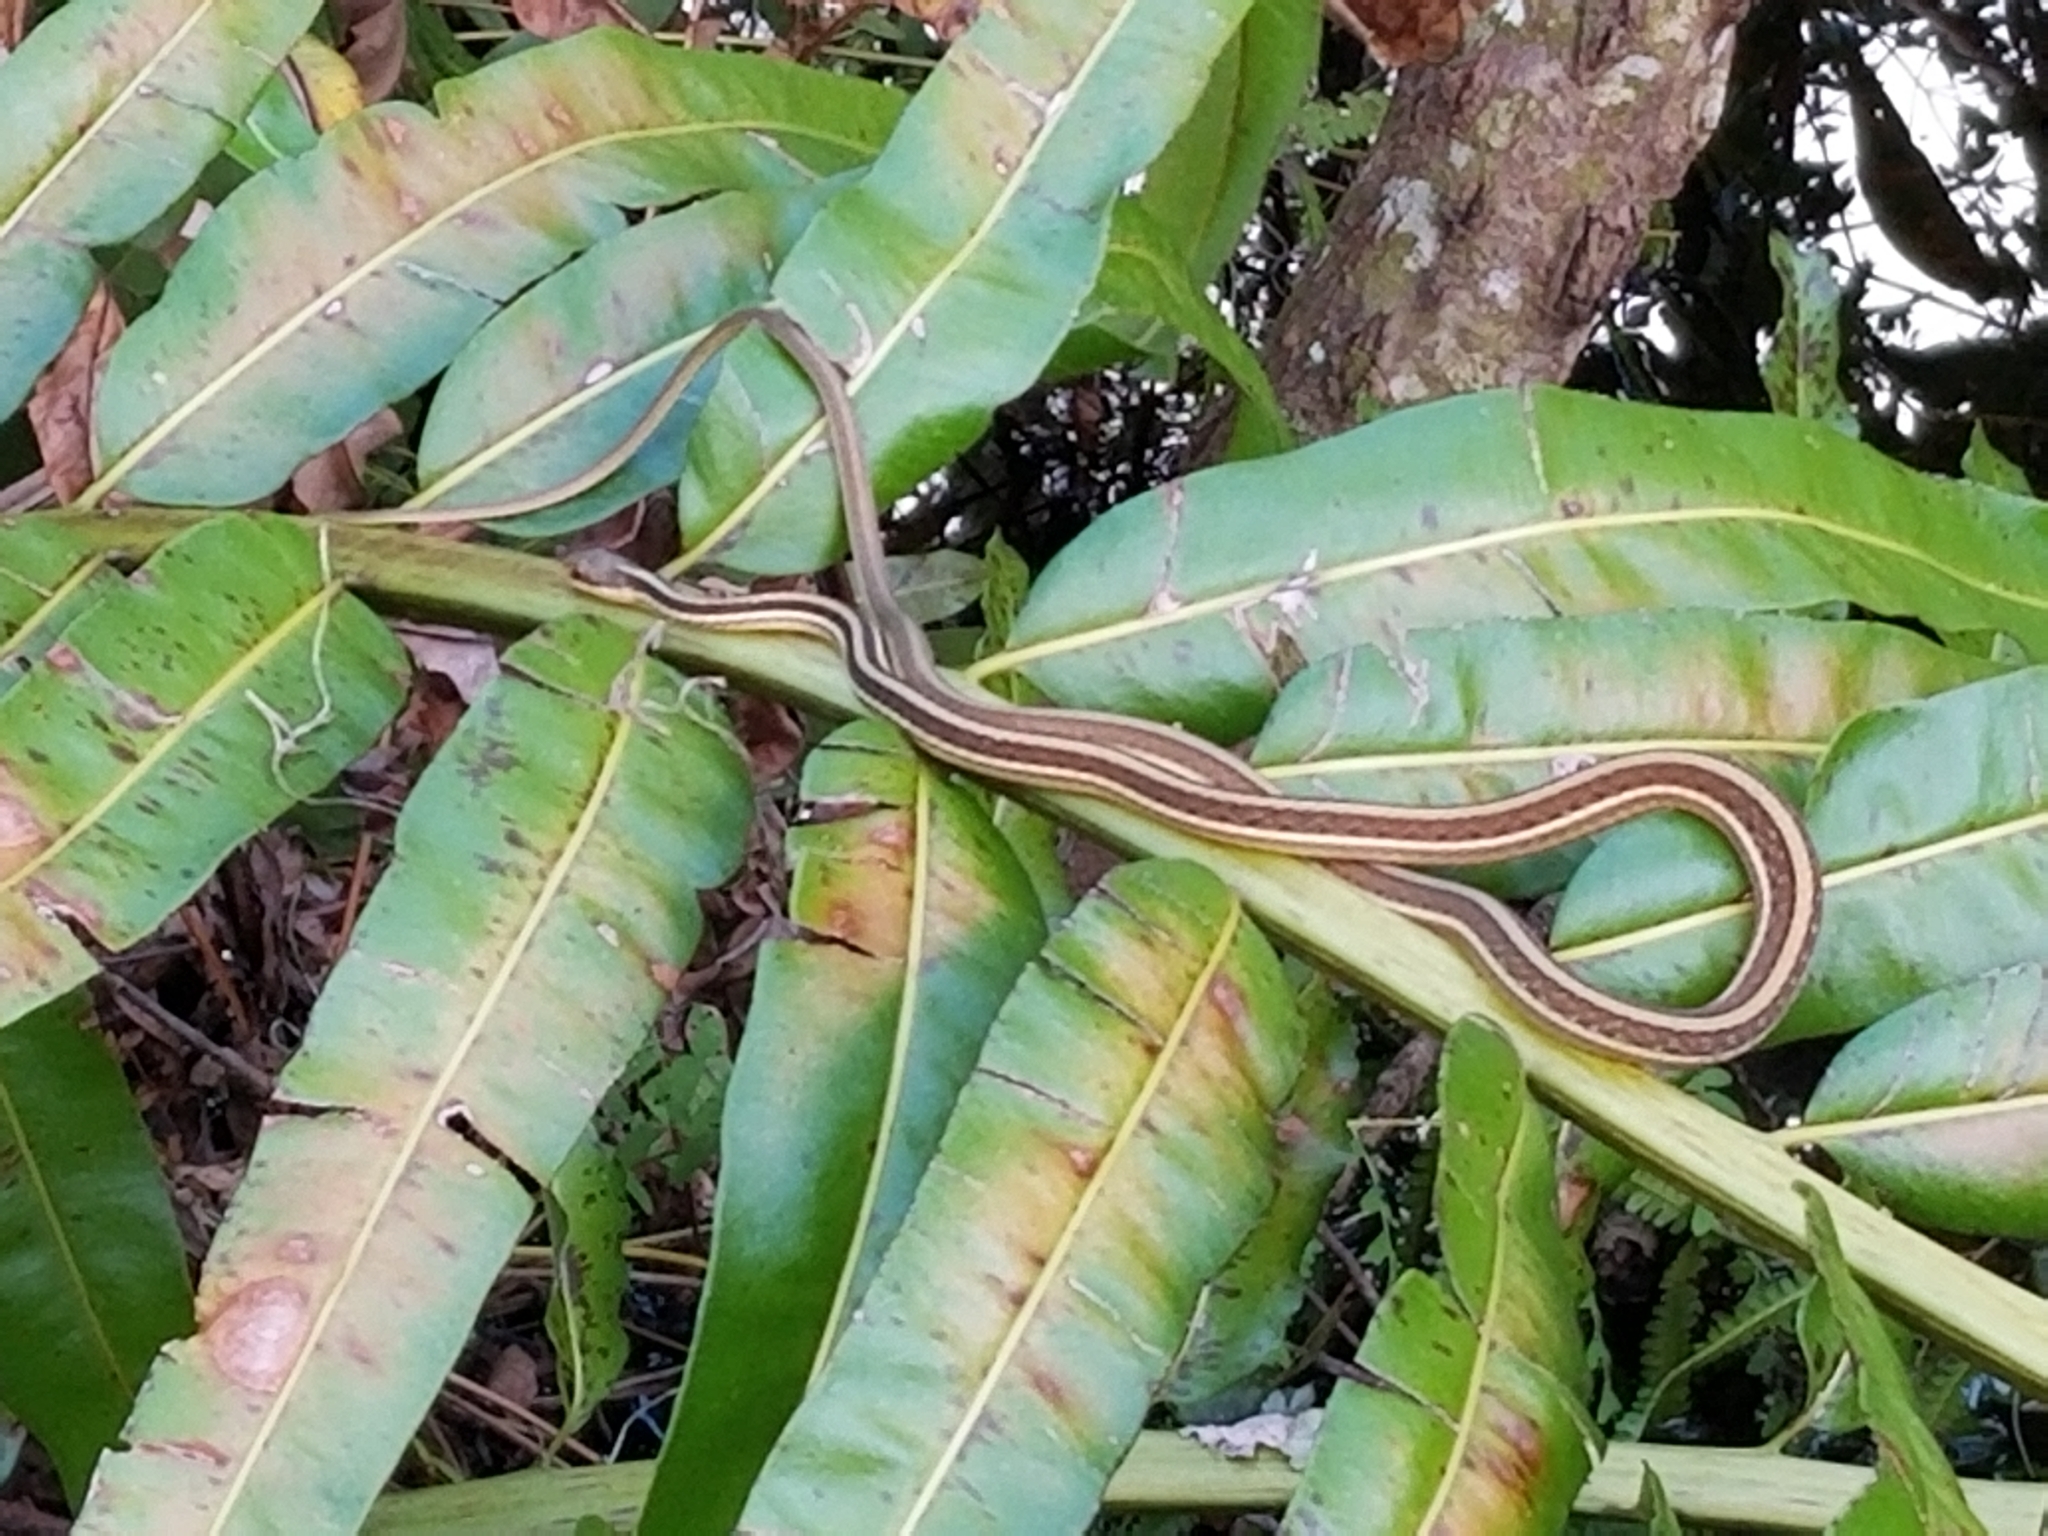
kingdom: Animalia
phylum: Chordata
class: Squamata
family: Colubridae
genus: Thamnophis
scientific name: Thamnophis saurita
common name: Eastern ribbonsnake
